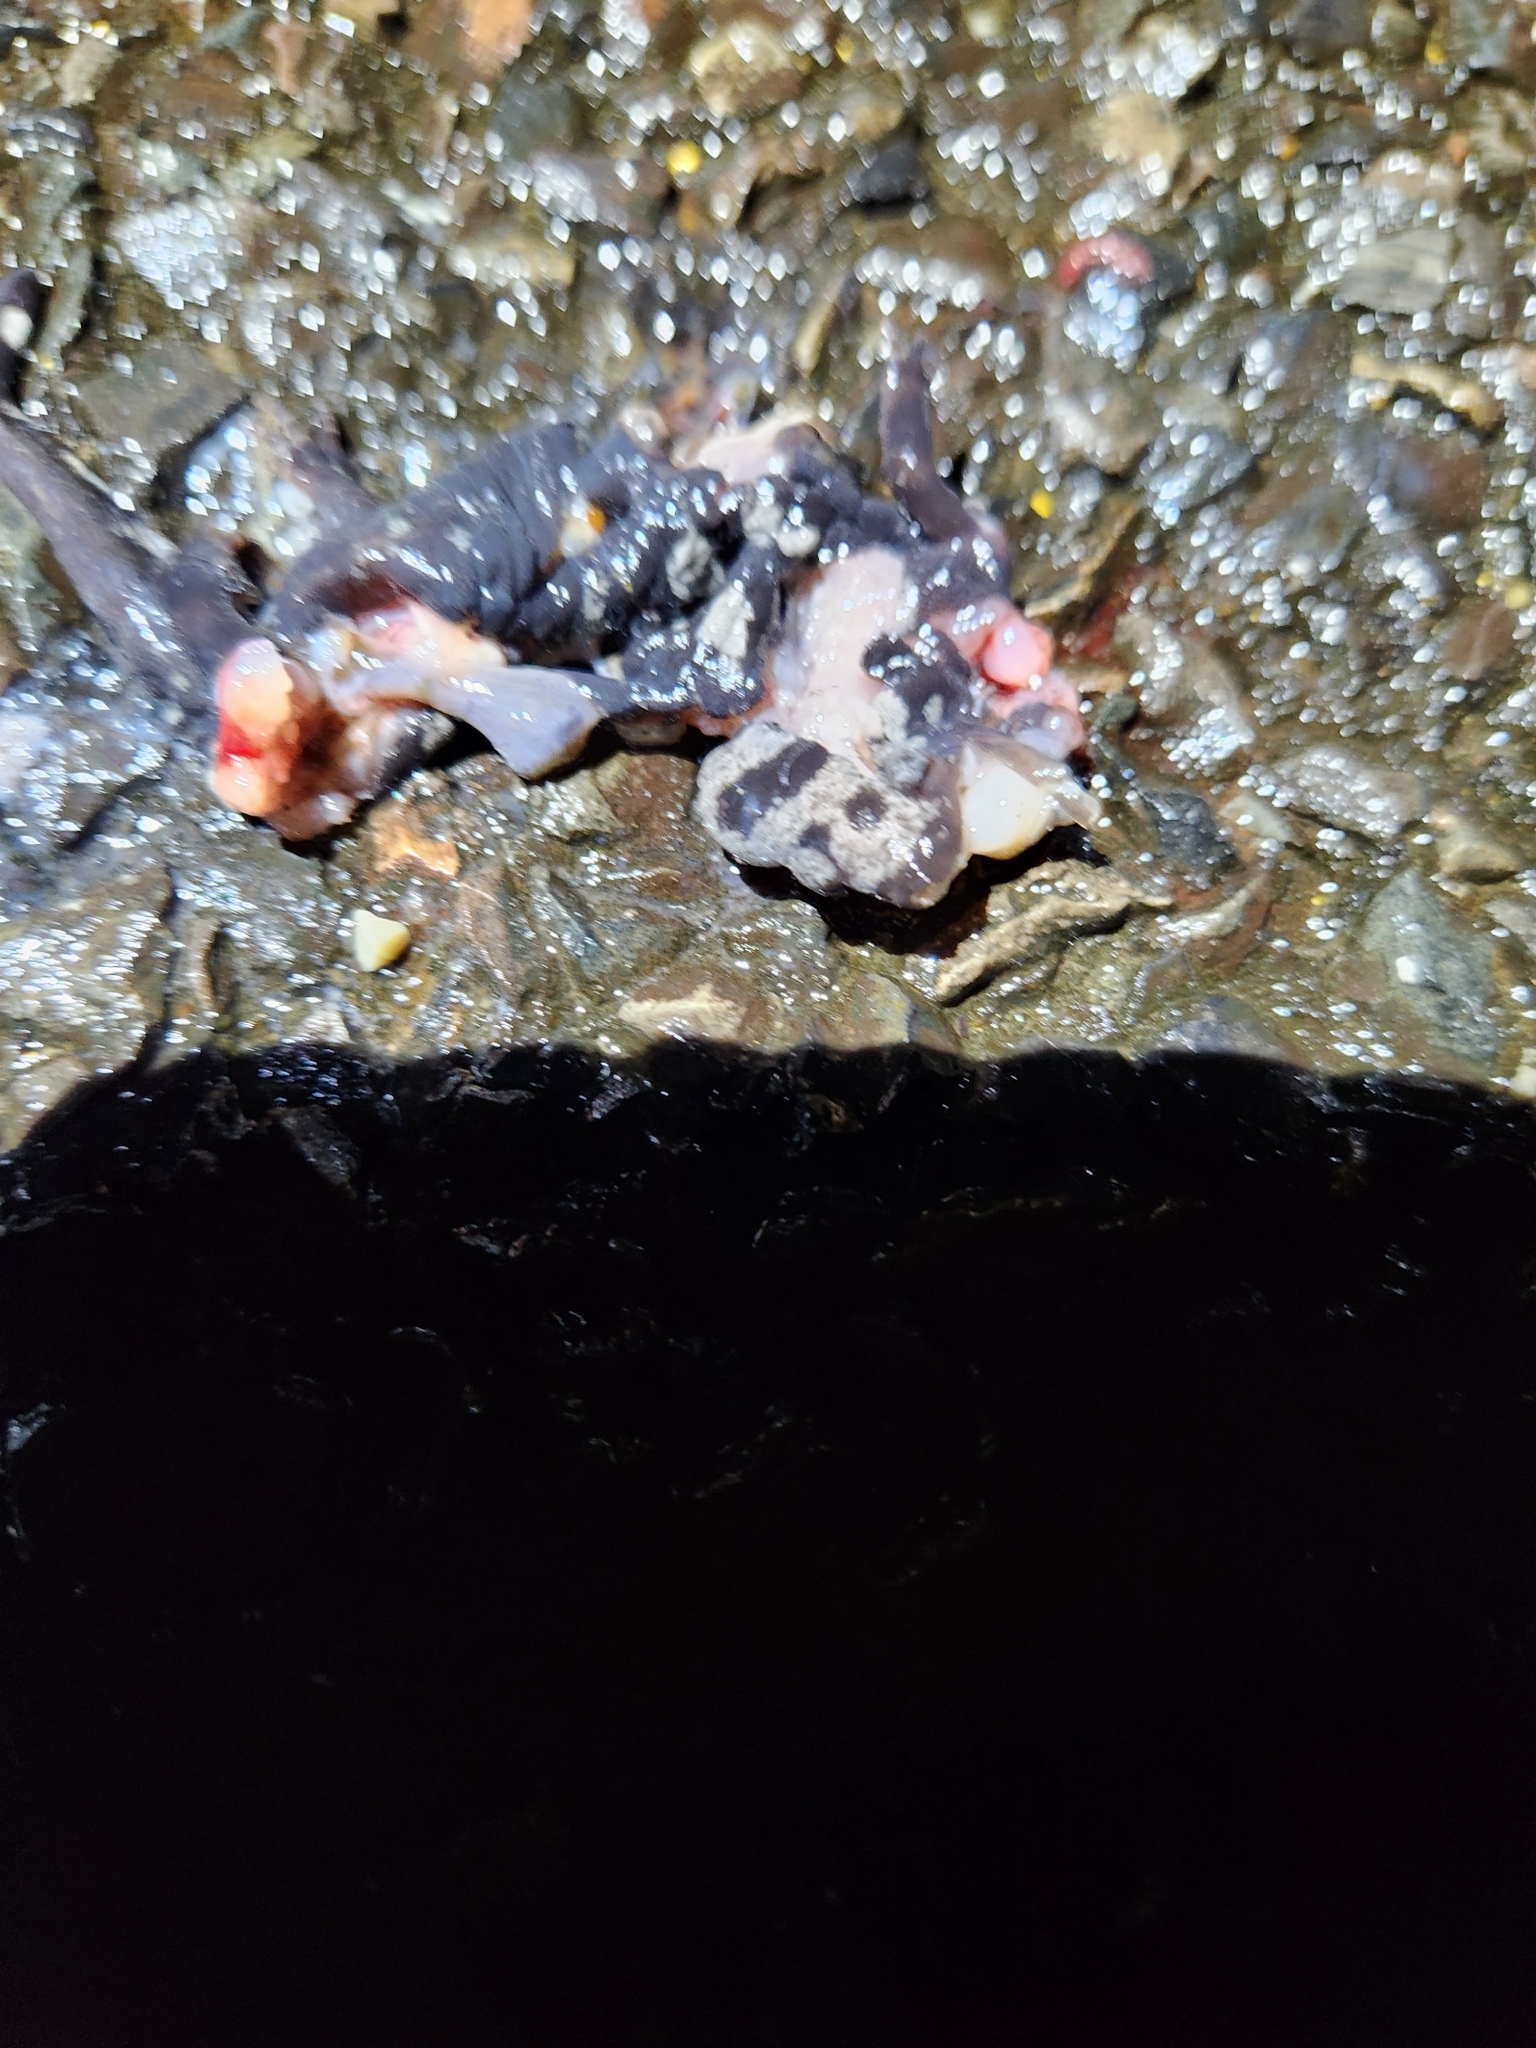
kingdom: Animalia
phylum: Chordata
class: Amphibia
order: Caudata
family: Ambystomatidae
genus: Ambystoma
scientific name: Ambystoma opacum
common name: Marbled salamander
